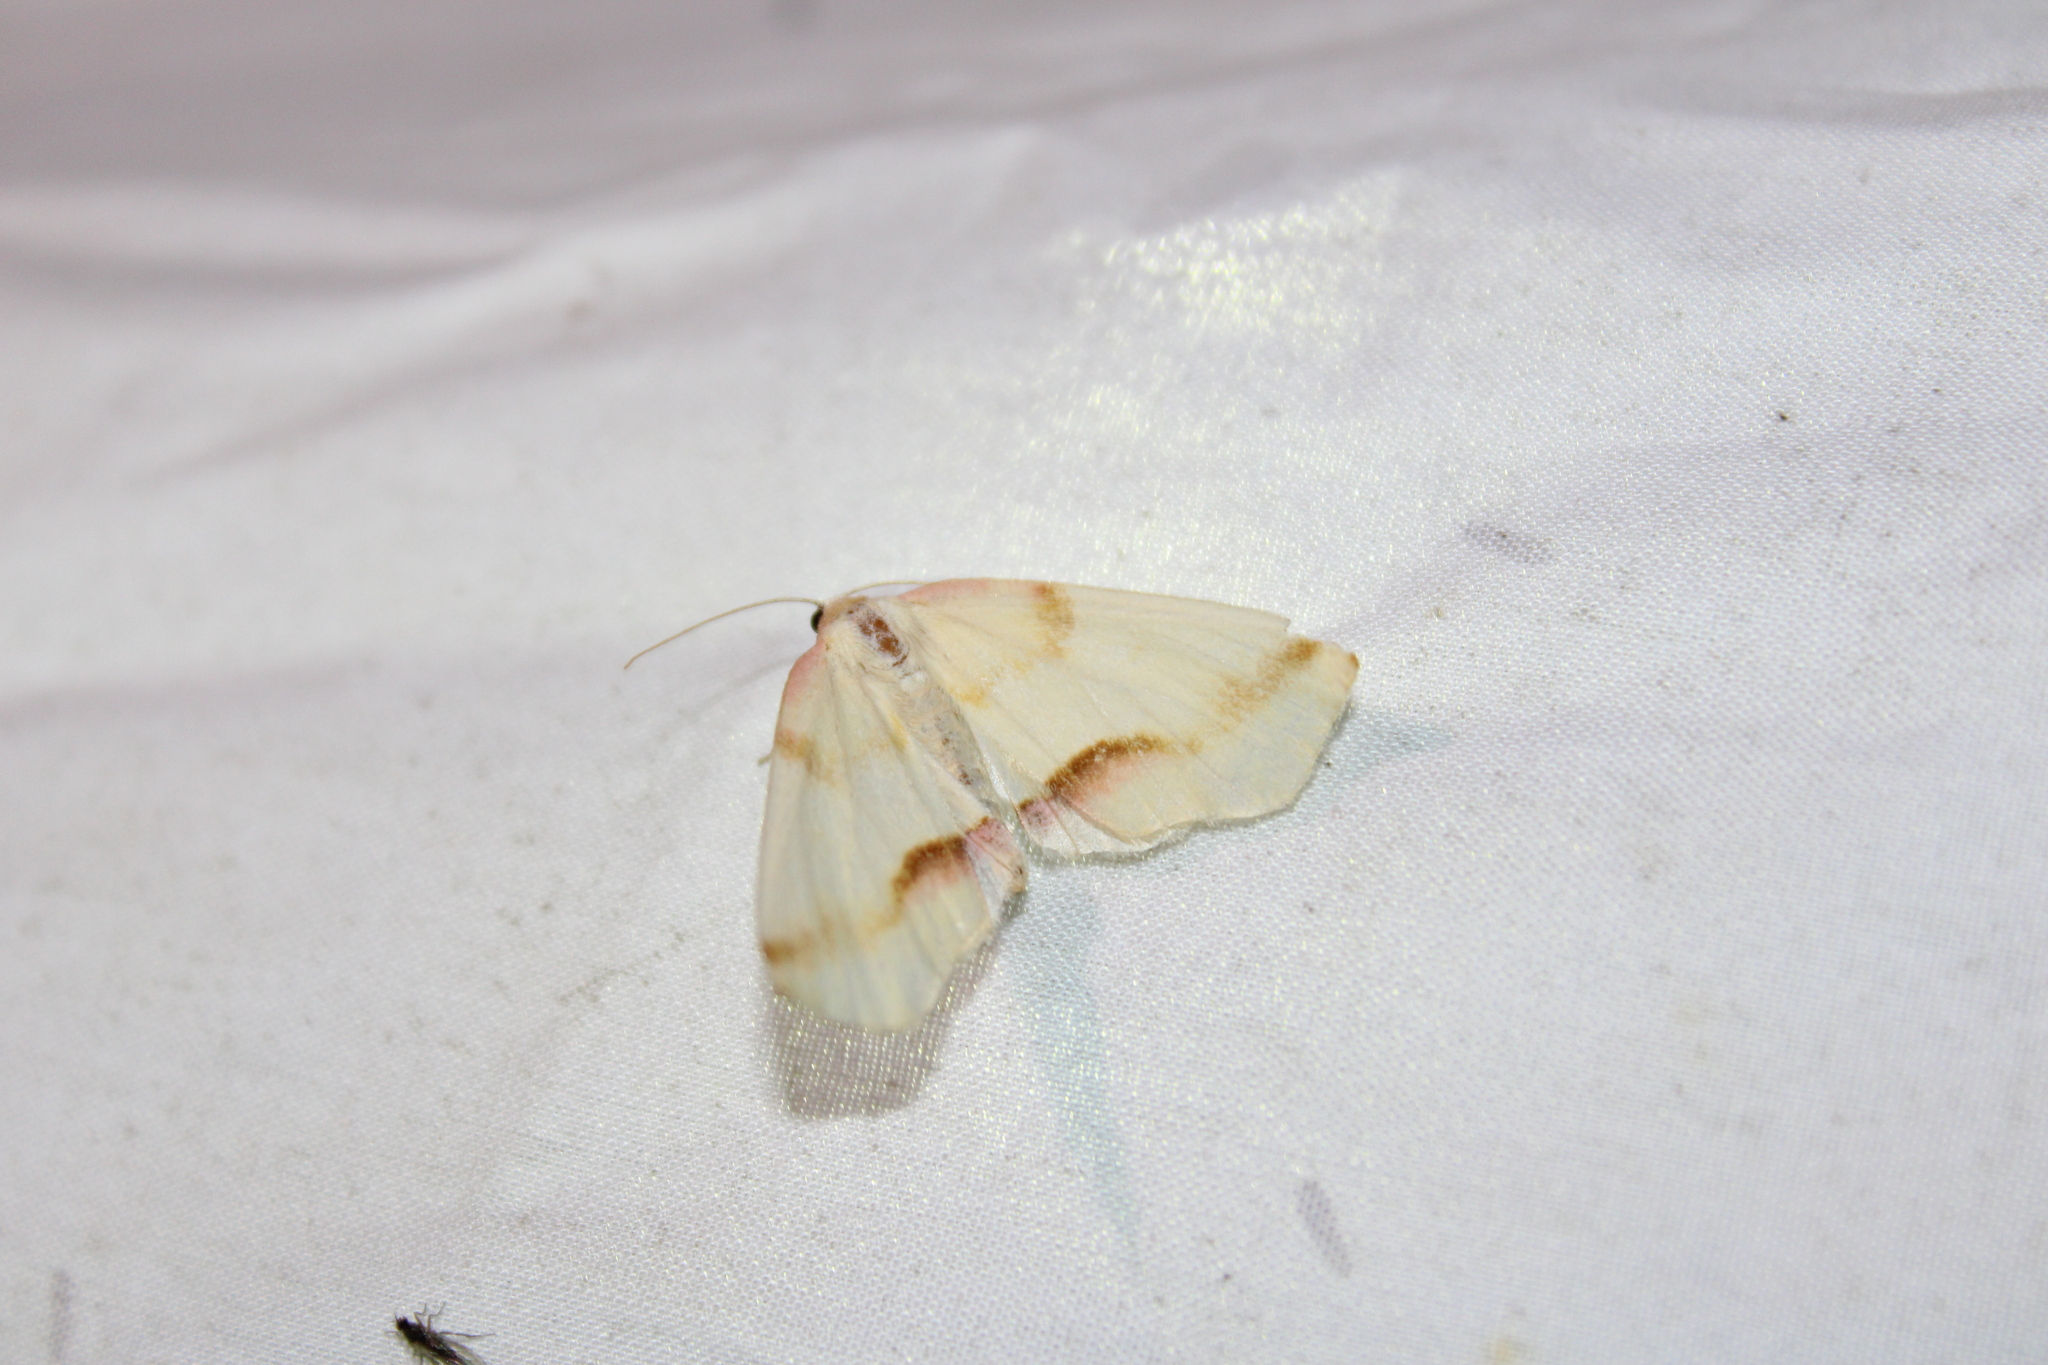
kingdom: Animalia
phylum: Arthropoda
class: Insecta
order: Lepidoptera
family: Geometridae
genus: Plagodis
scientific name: Plagodis serinaria
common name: Lemon plagodis
